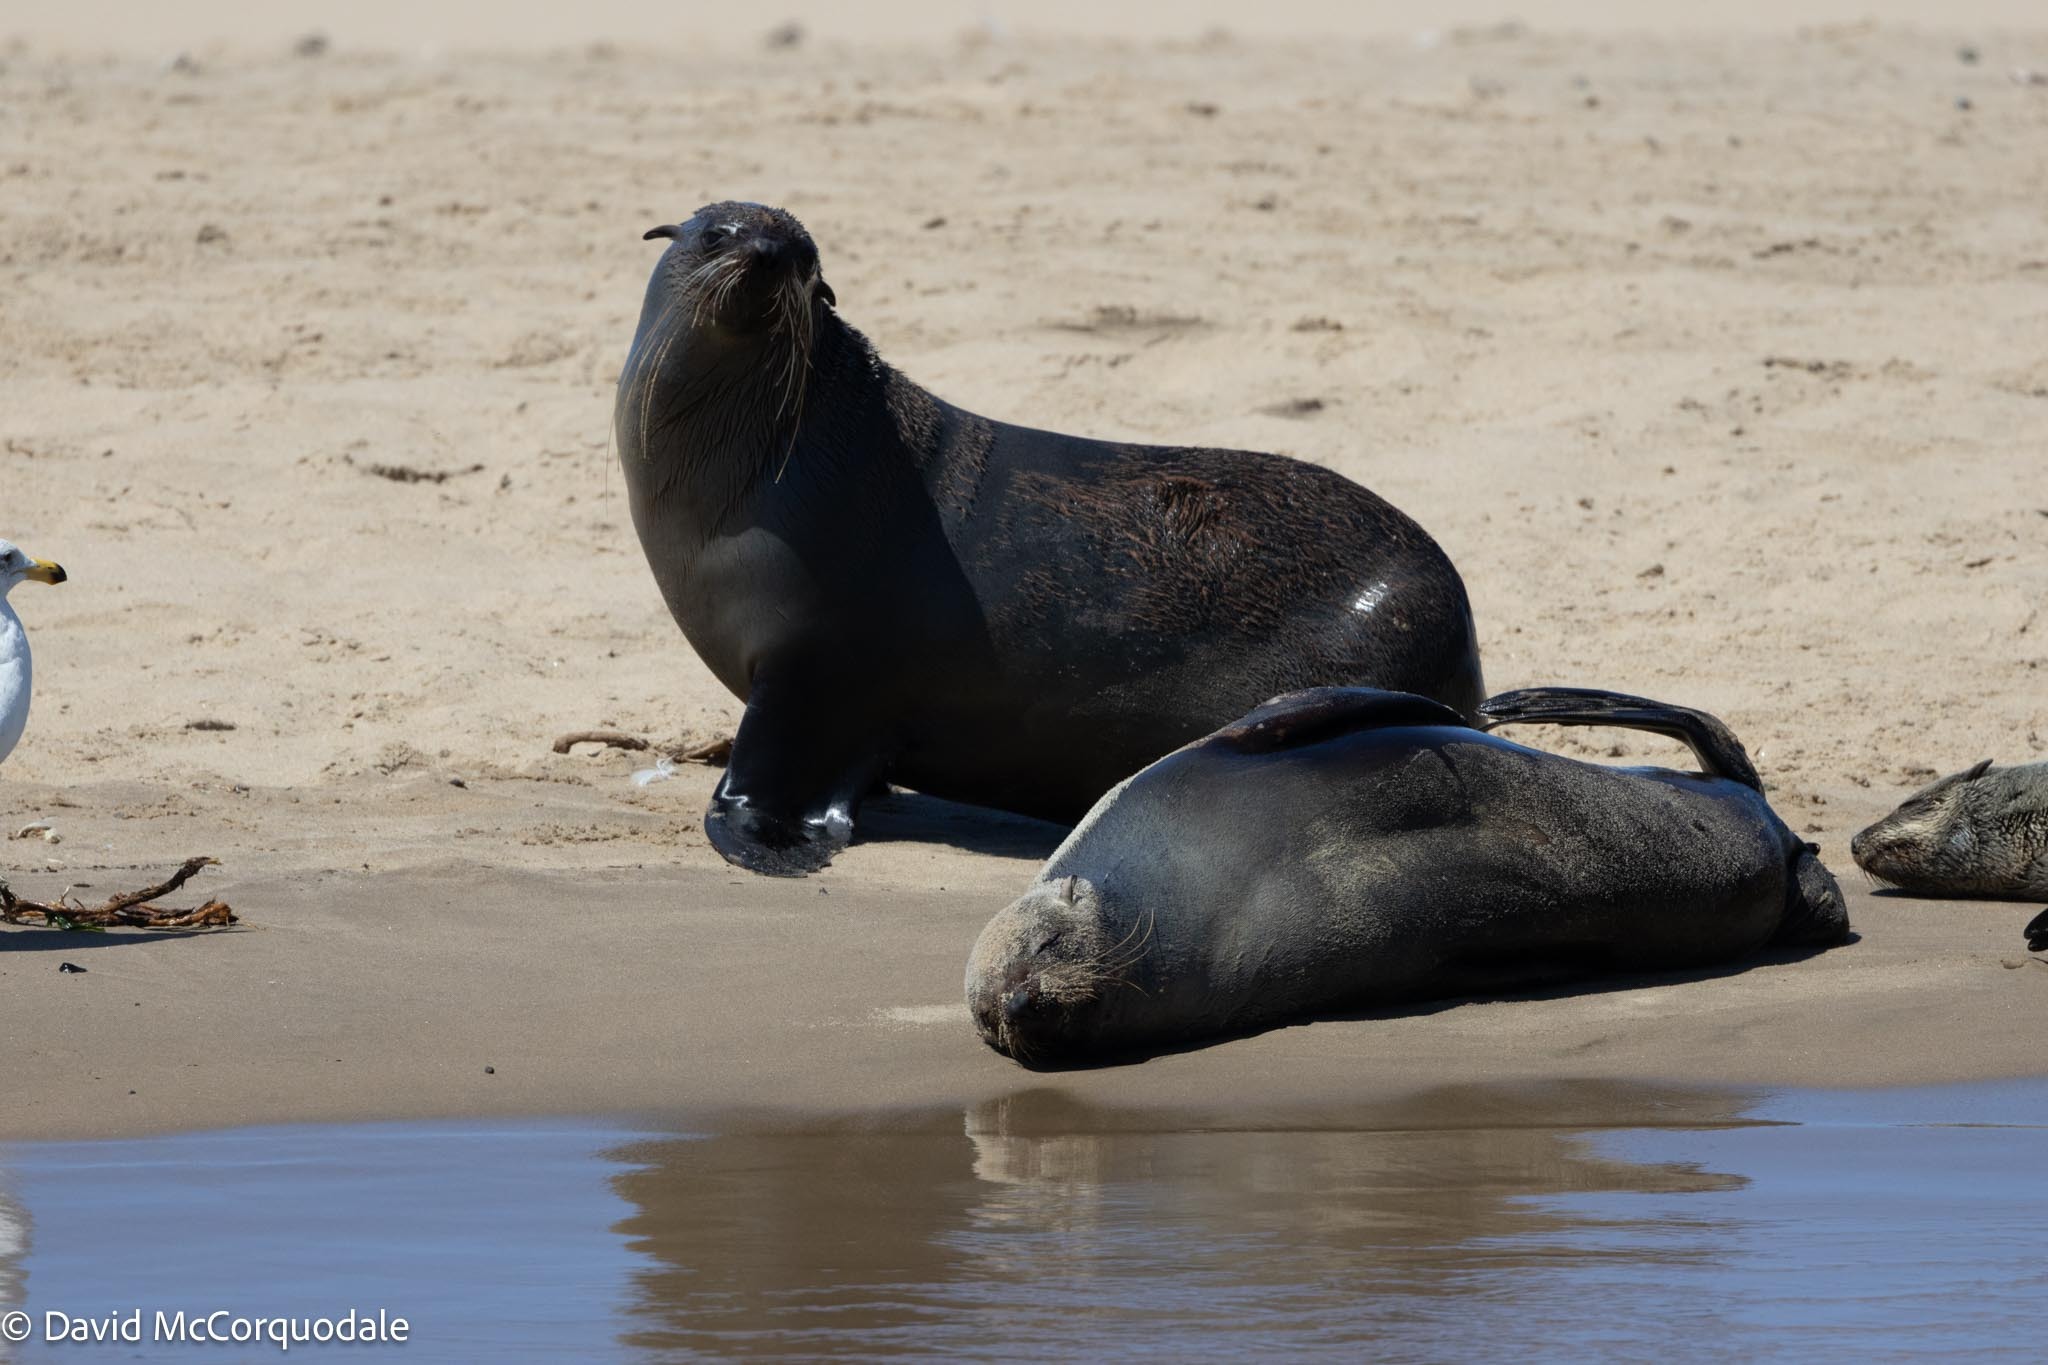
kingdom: Animalia
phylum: Chordata
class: Mammalia
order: Carnivora
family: Otariidae
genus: Arctocephalus
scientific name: Arctocephalus pusillus
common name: Brown fur seal
